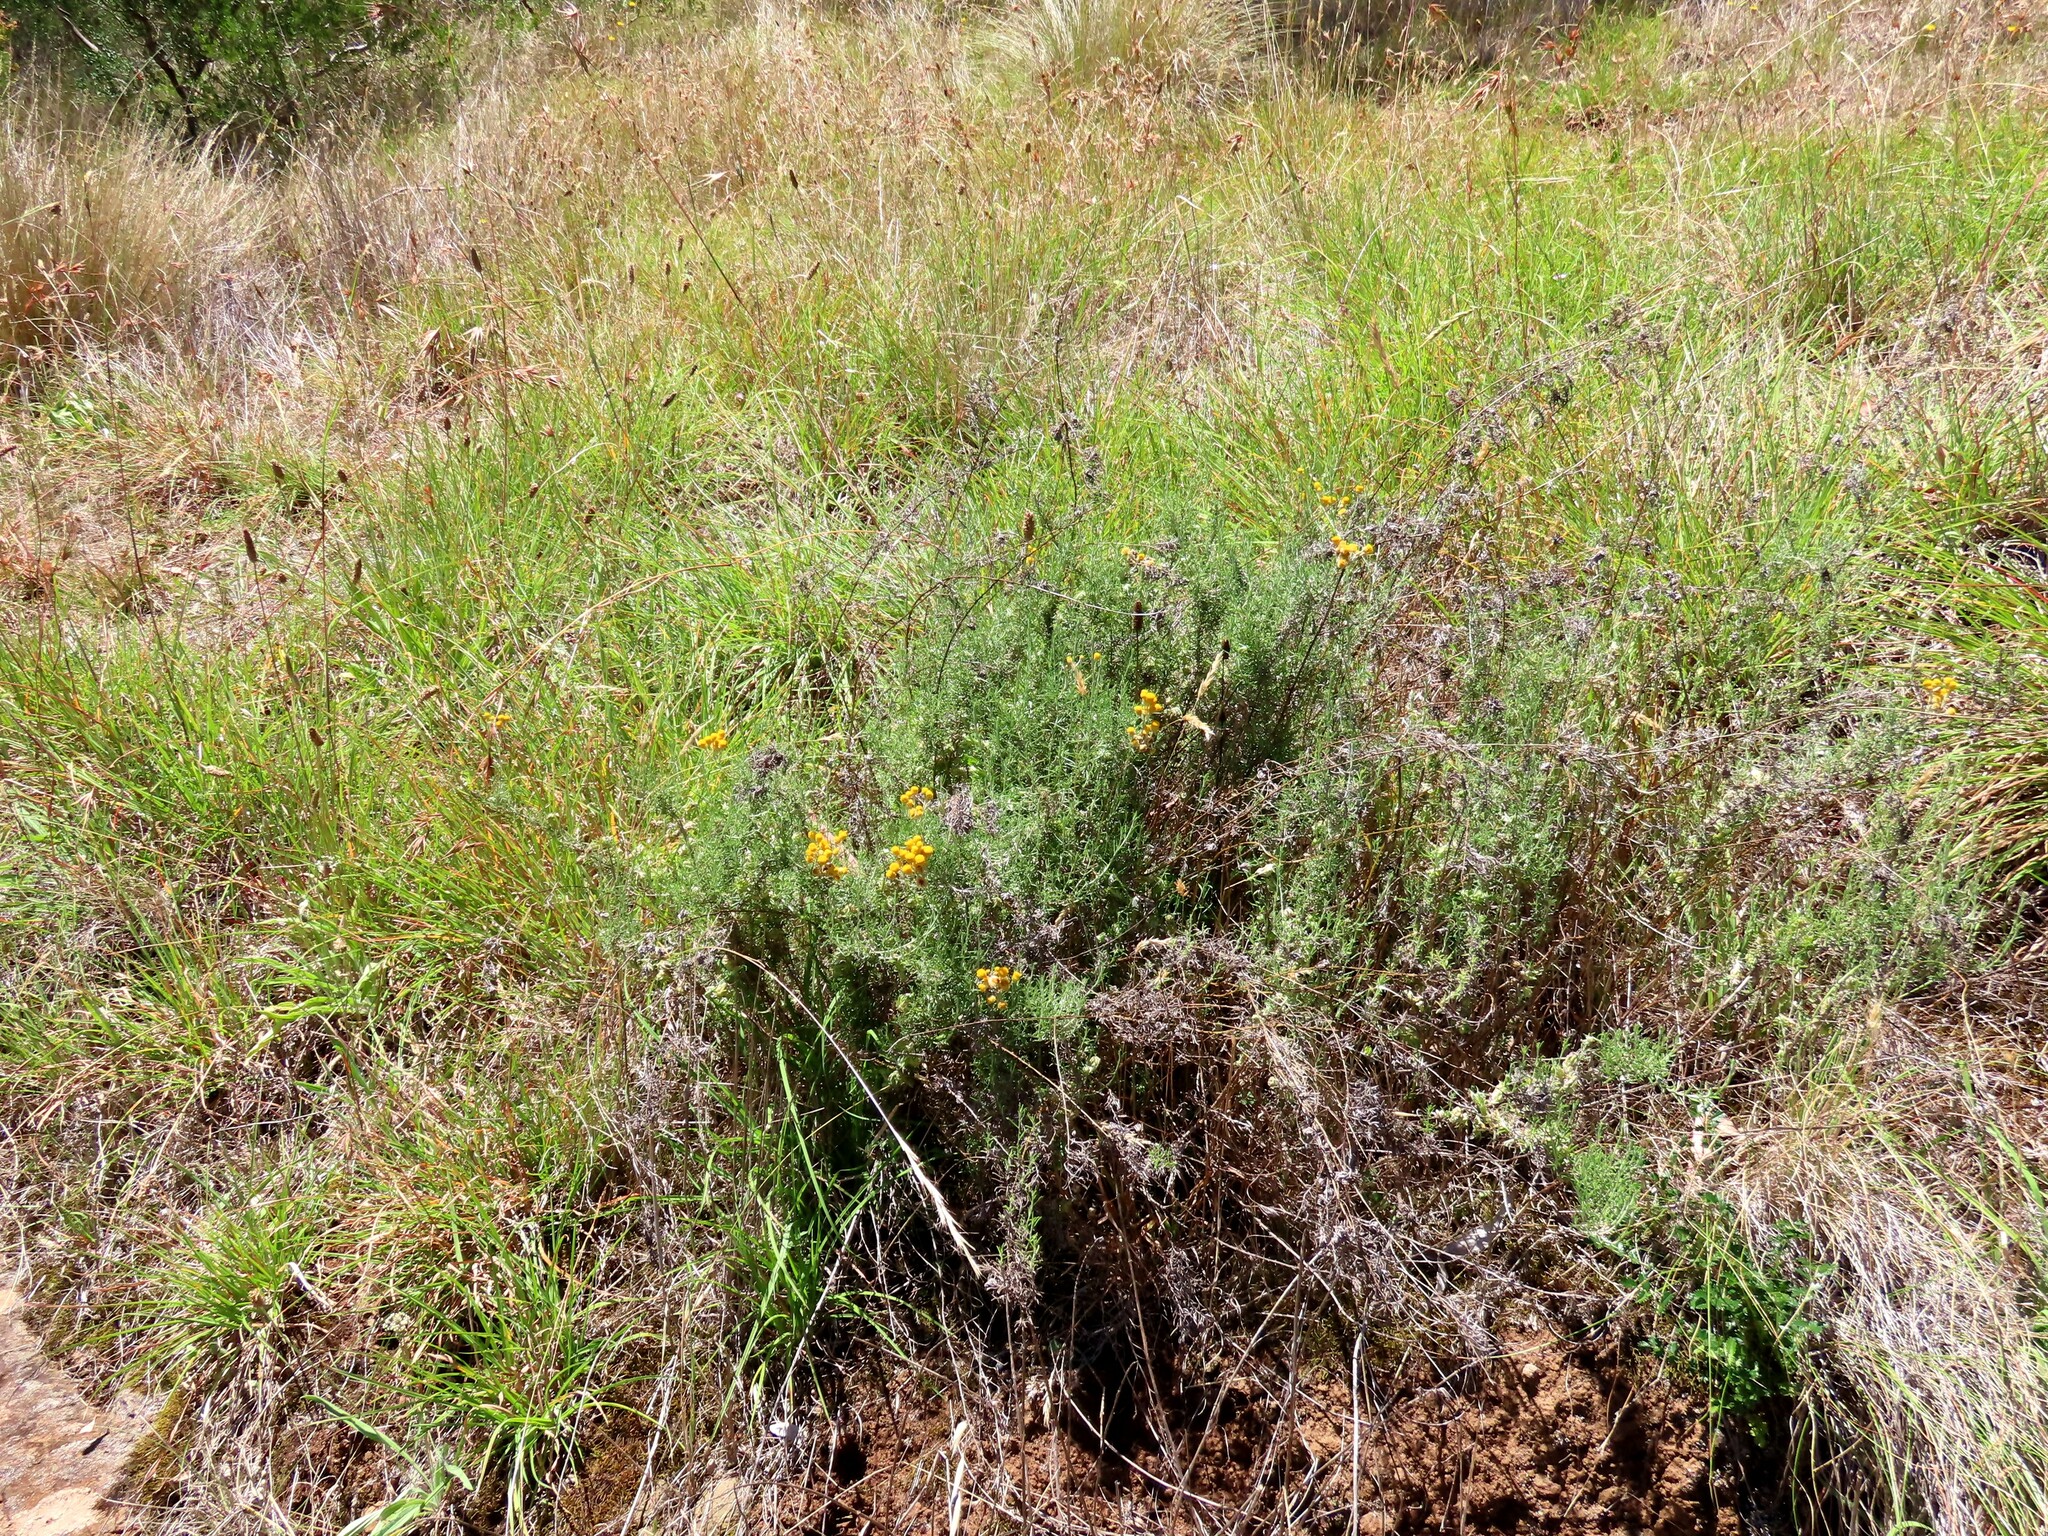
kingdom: Plantae
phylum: Tracheophyta
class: Magnoliopsida
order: Asterales
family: Asteraceae
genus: Chrysocephalum
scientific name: Chrysocephalum semipapposum
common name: Clustered everlasting
